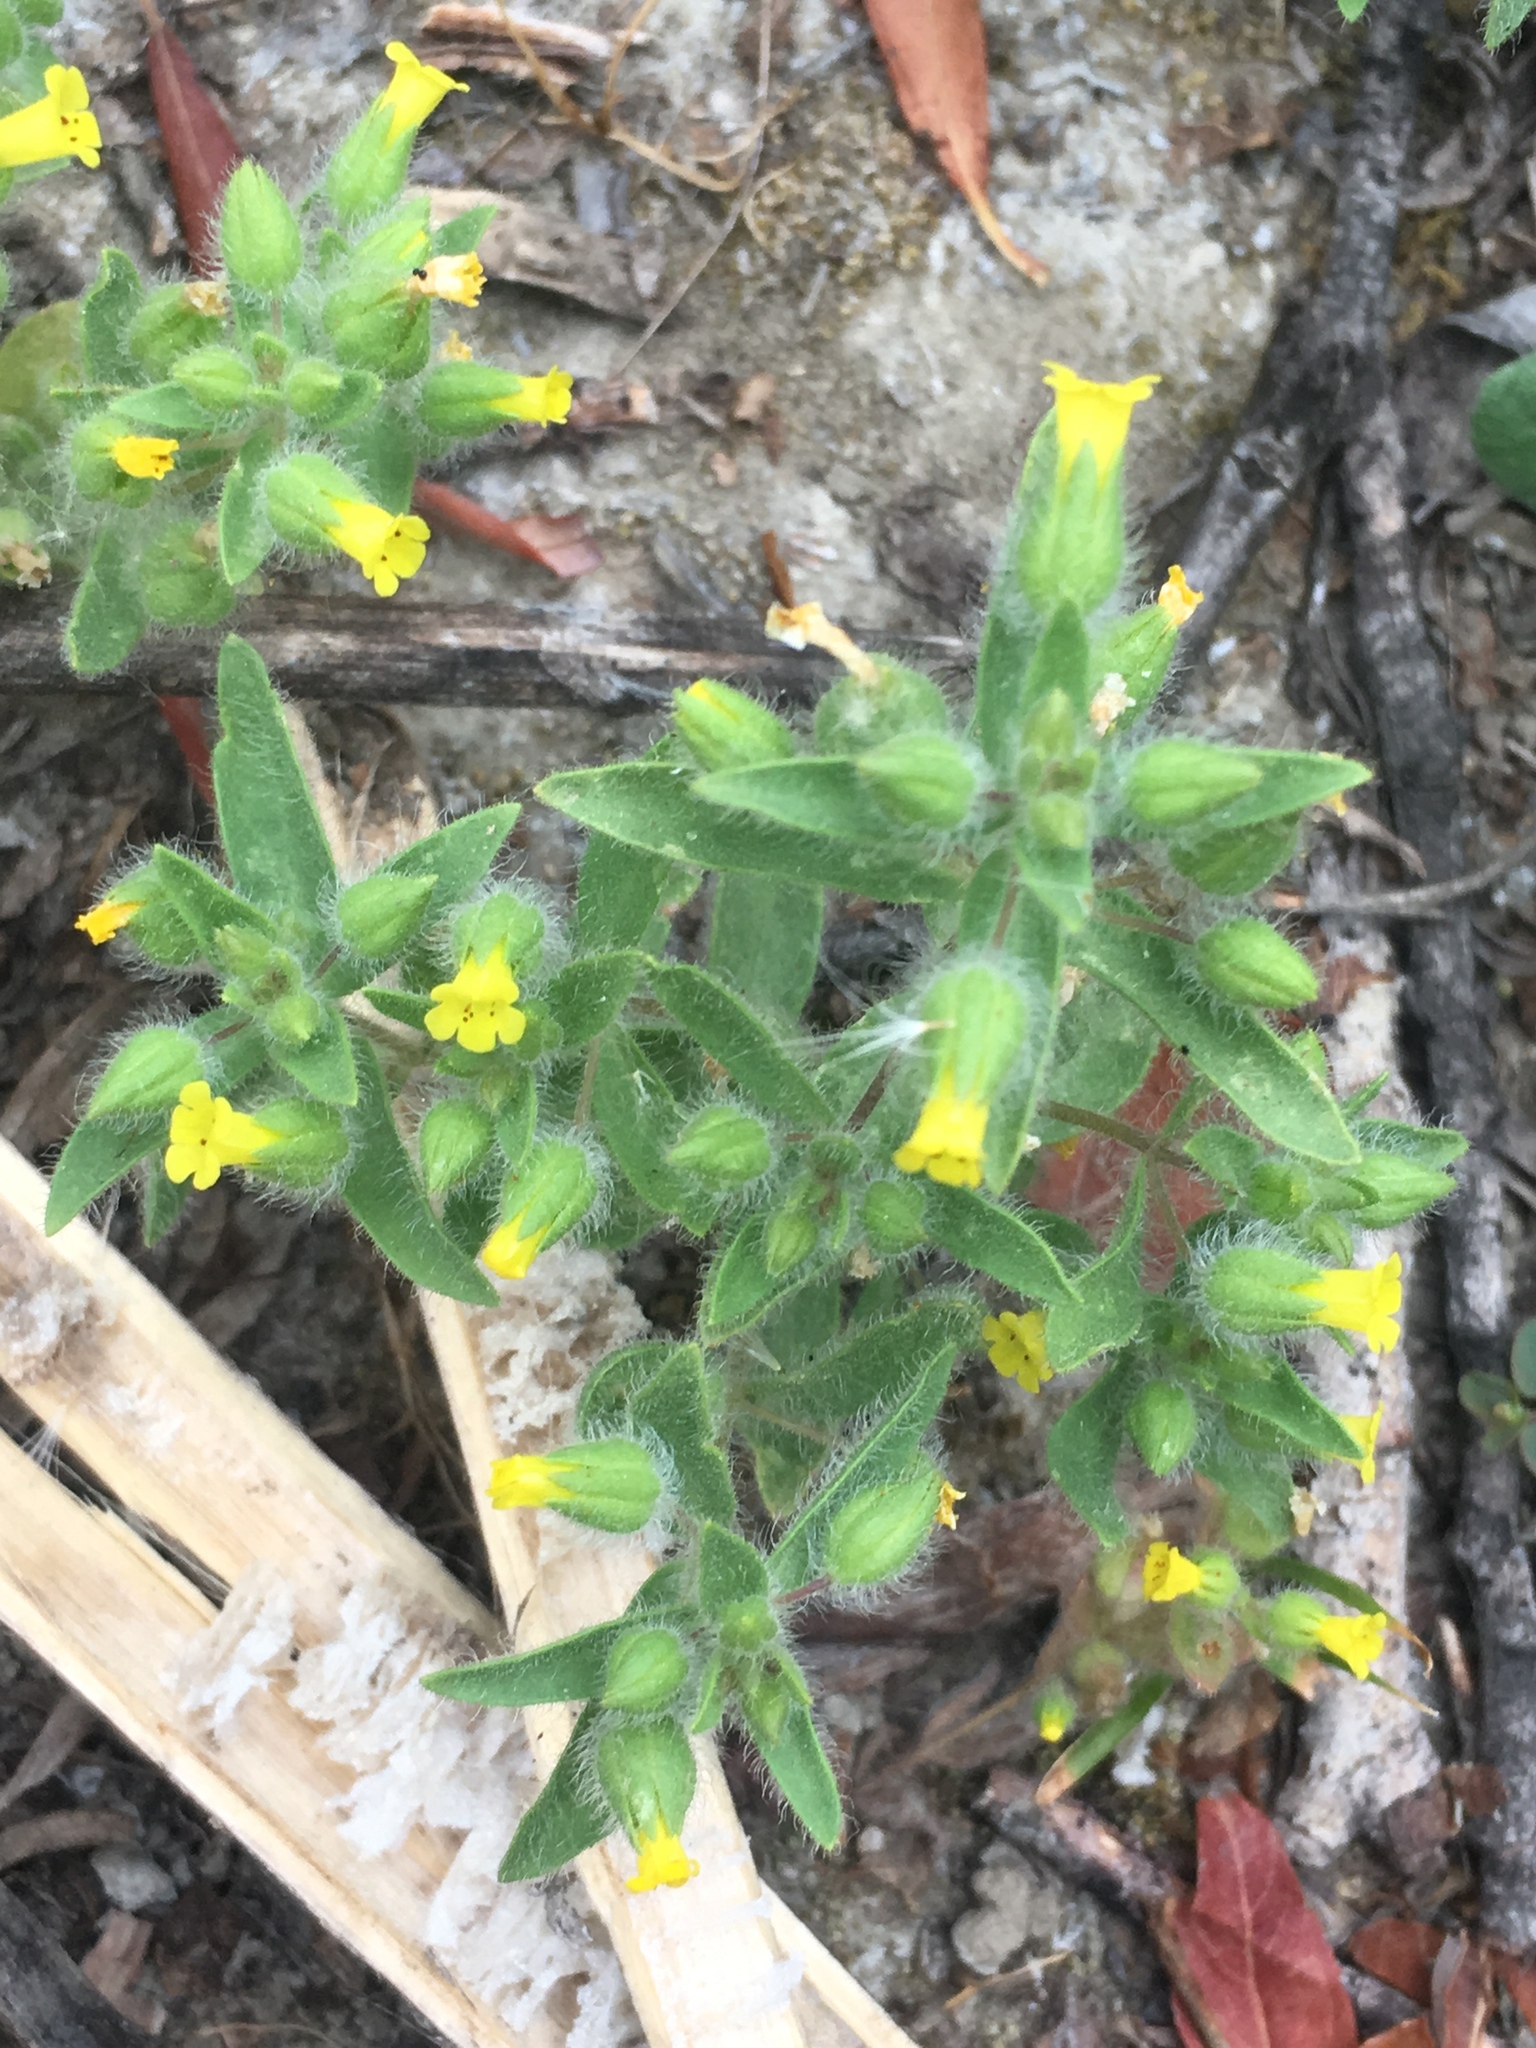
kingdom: Plantae
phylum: Tracheophyta
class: Magnoliopsida
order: Lamiales
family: Phrymaceae
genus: Mimetanthe
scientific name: Mimetanthe pilosa
